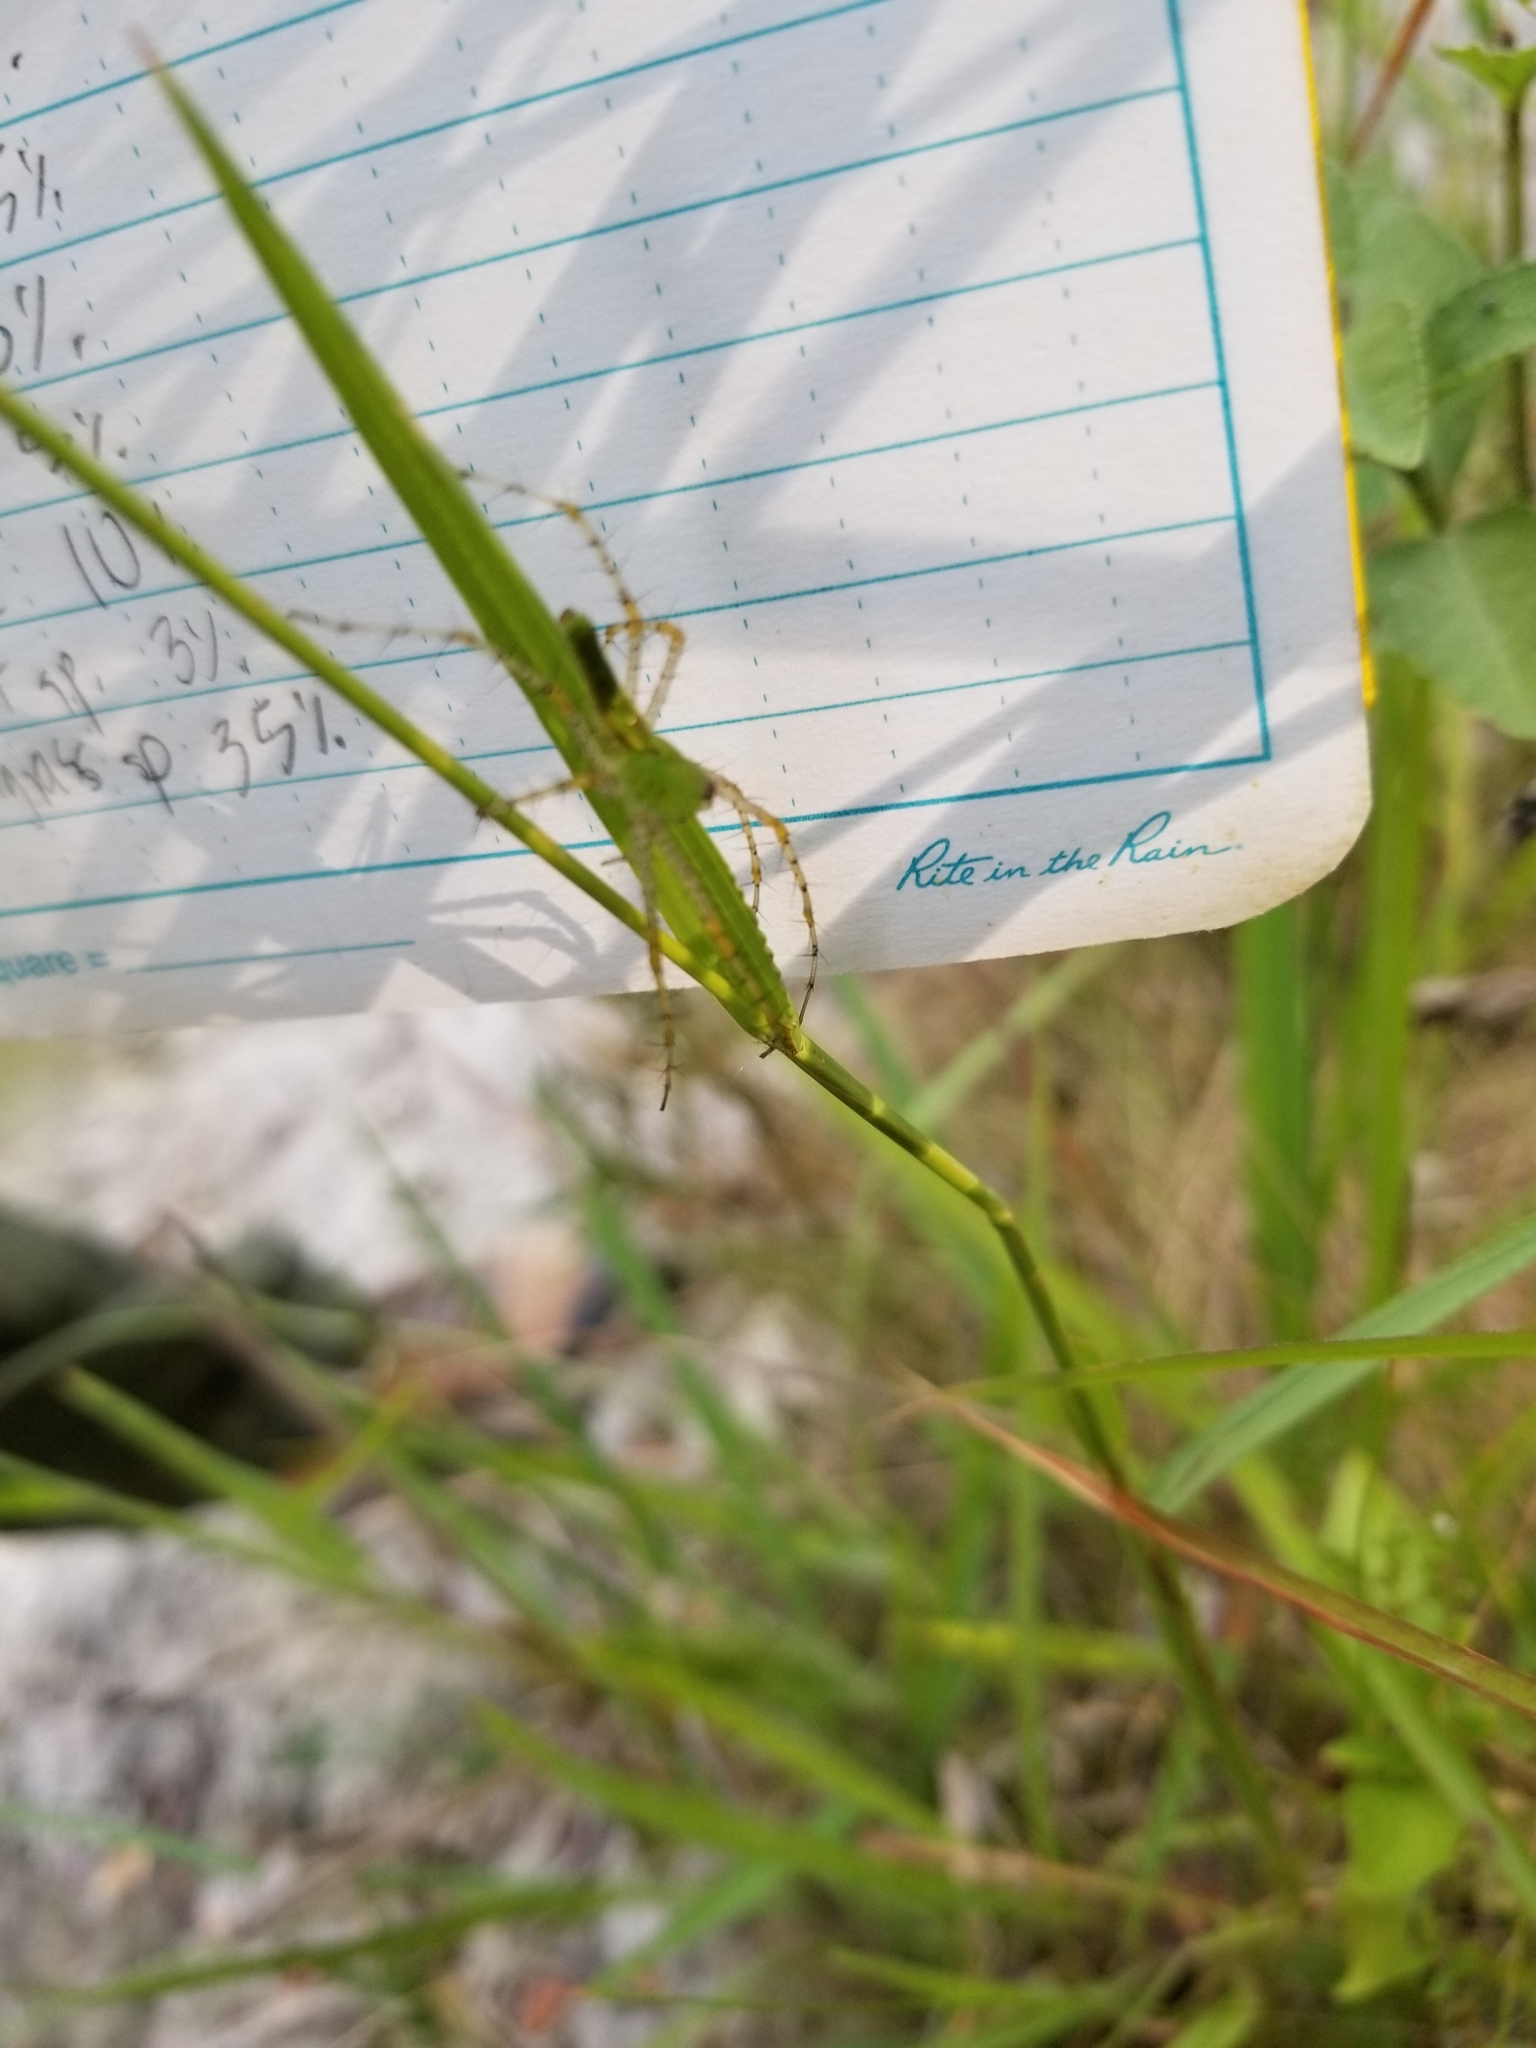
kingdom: Animalia
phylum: Arthropoda
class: Arachnida
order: Araneae
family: Oxyopidae
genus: Peucetia
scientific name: Peucetia viridans
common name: Lynx spiders
